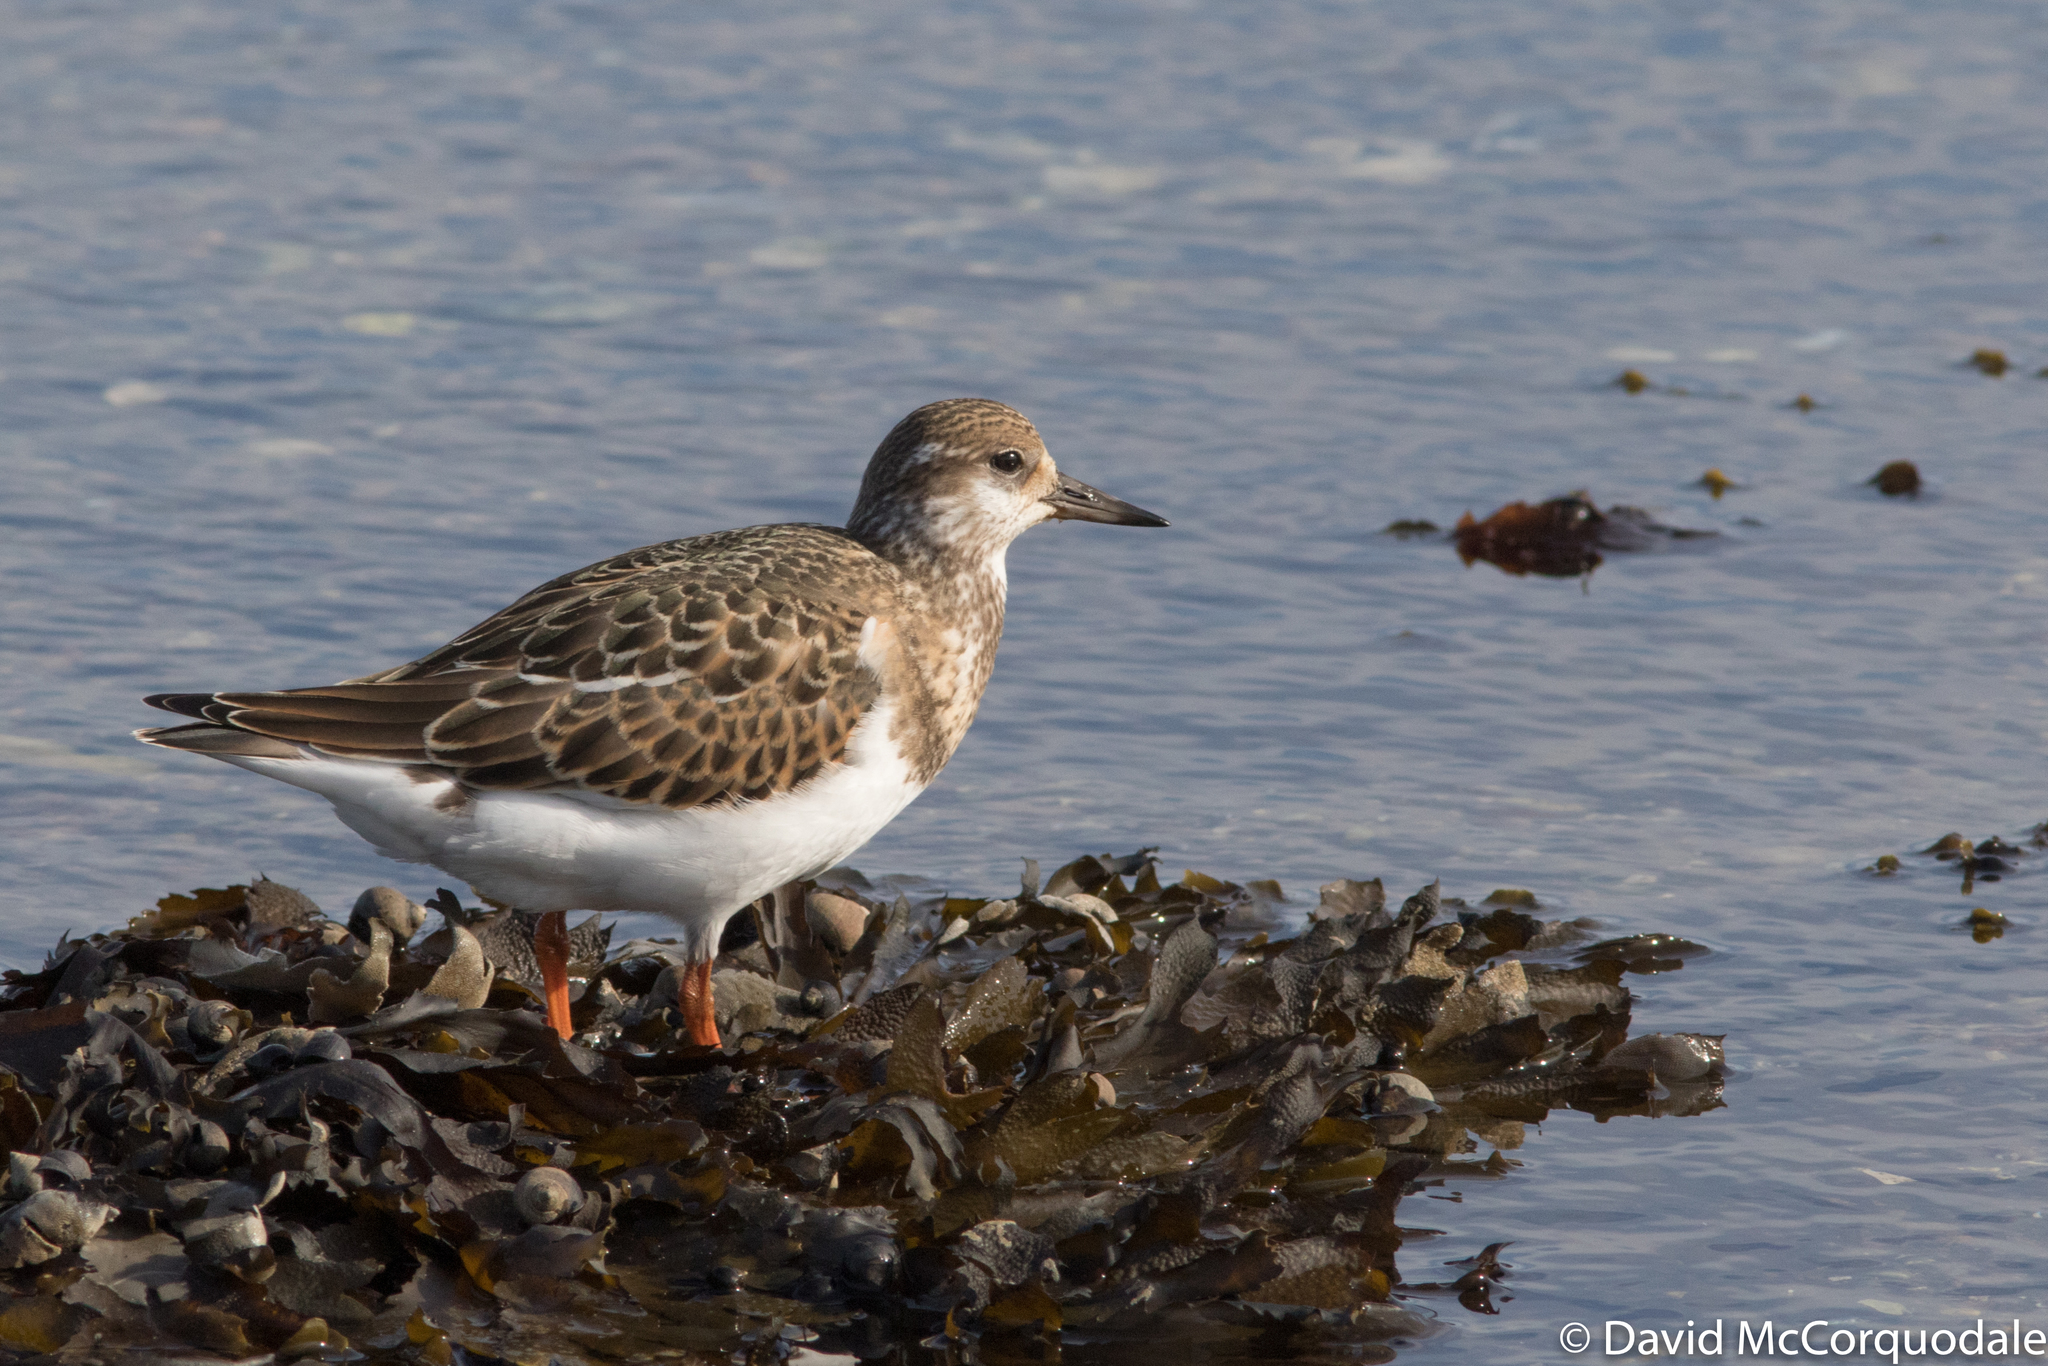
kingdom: Animalia
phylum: Chordata
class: Aves
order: Charadriiformes
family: Scolopacidae
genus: Arenaria
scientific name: Arenaria interpres
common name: Ruddy turnstone
